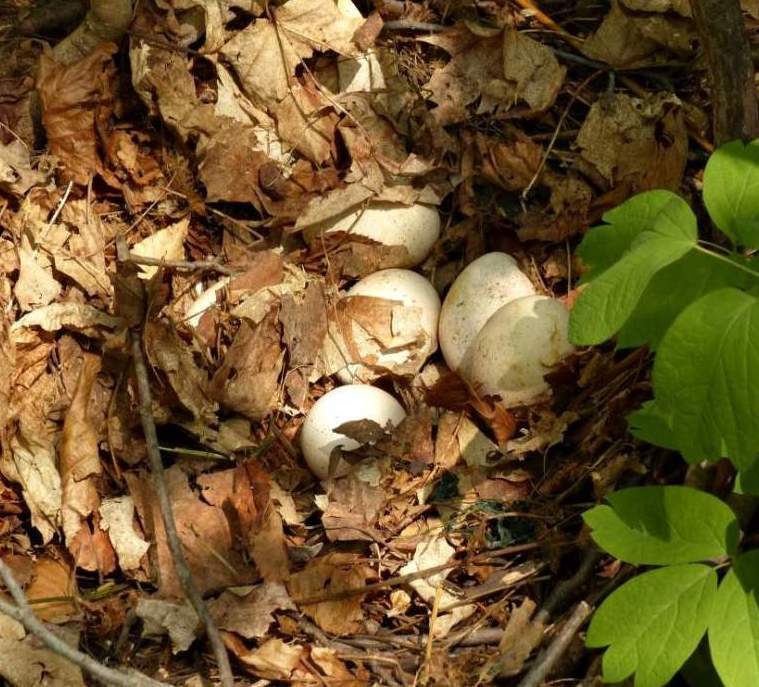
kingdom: Animalia
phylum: Chordata
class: Aves
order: Galliformes
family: Phasianidae
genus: Meleagris
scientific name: Meleagris gallopavo
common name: Wild turkey
